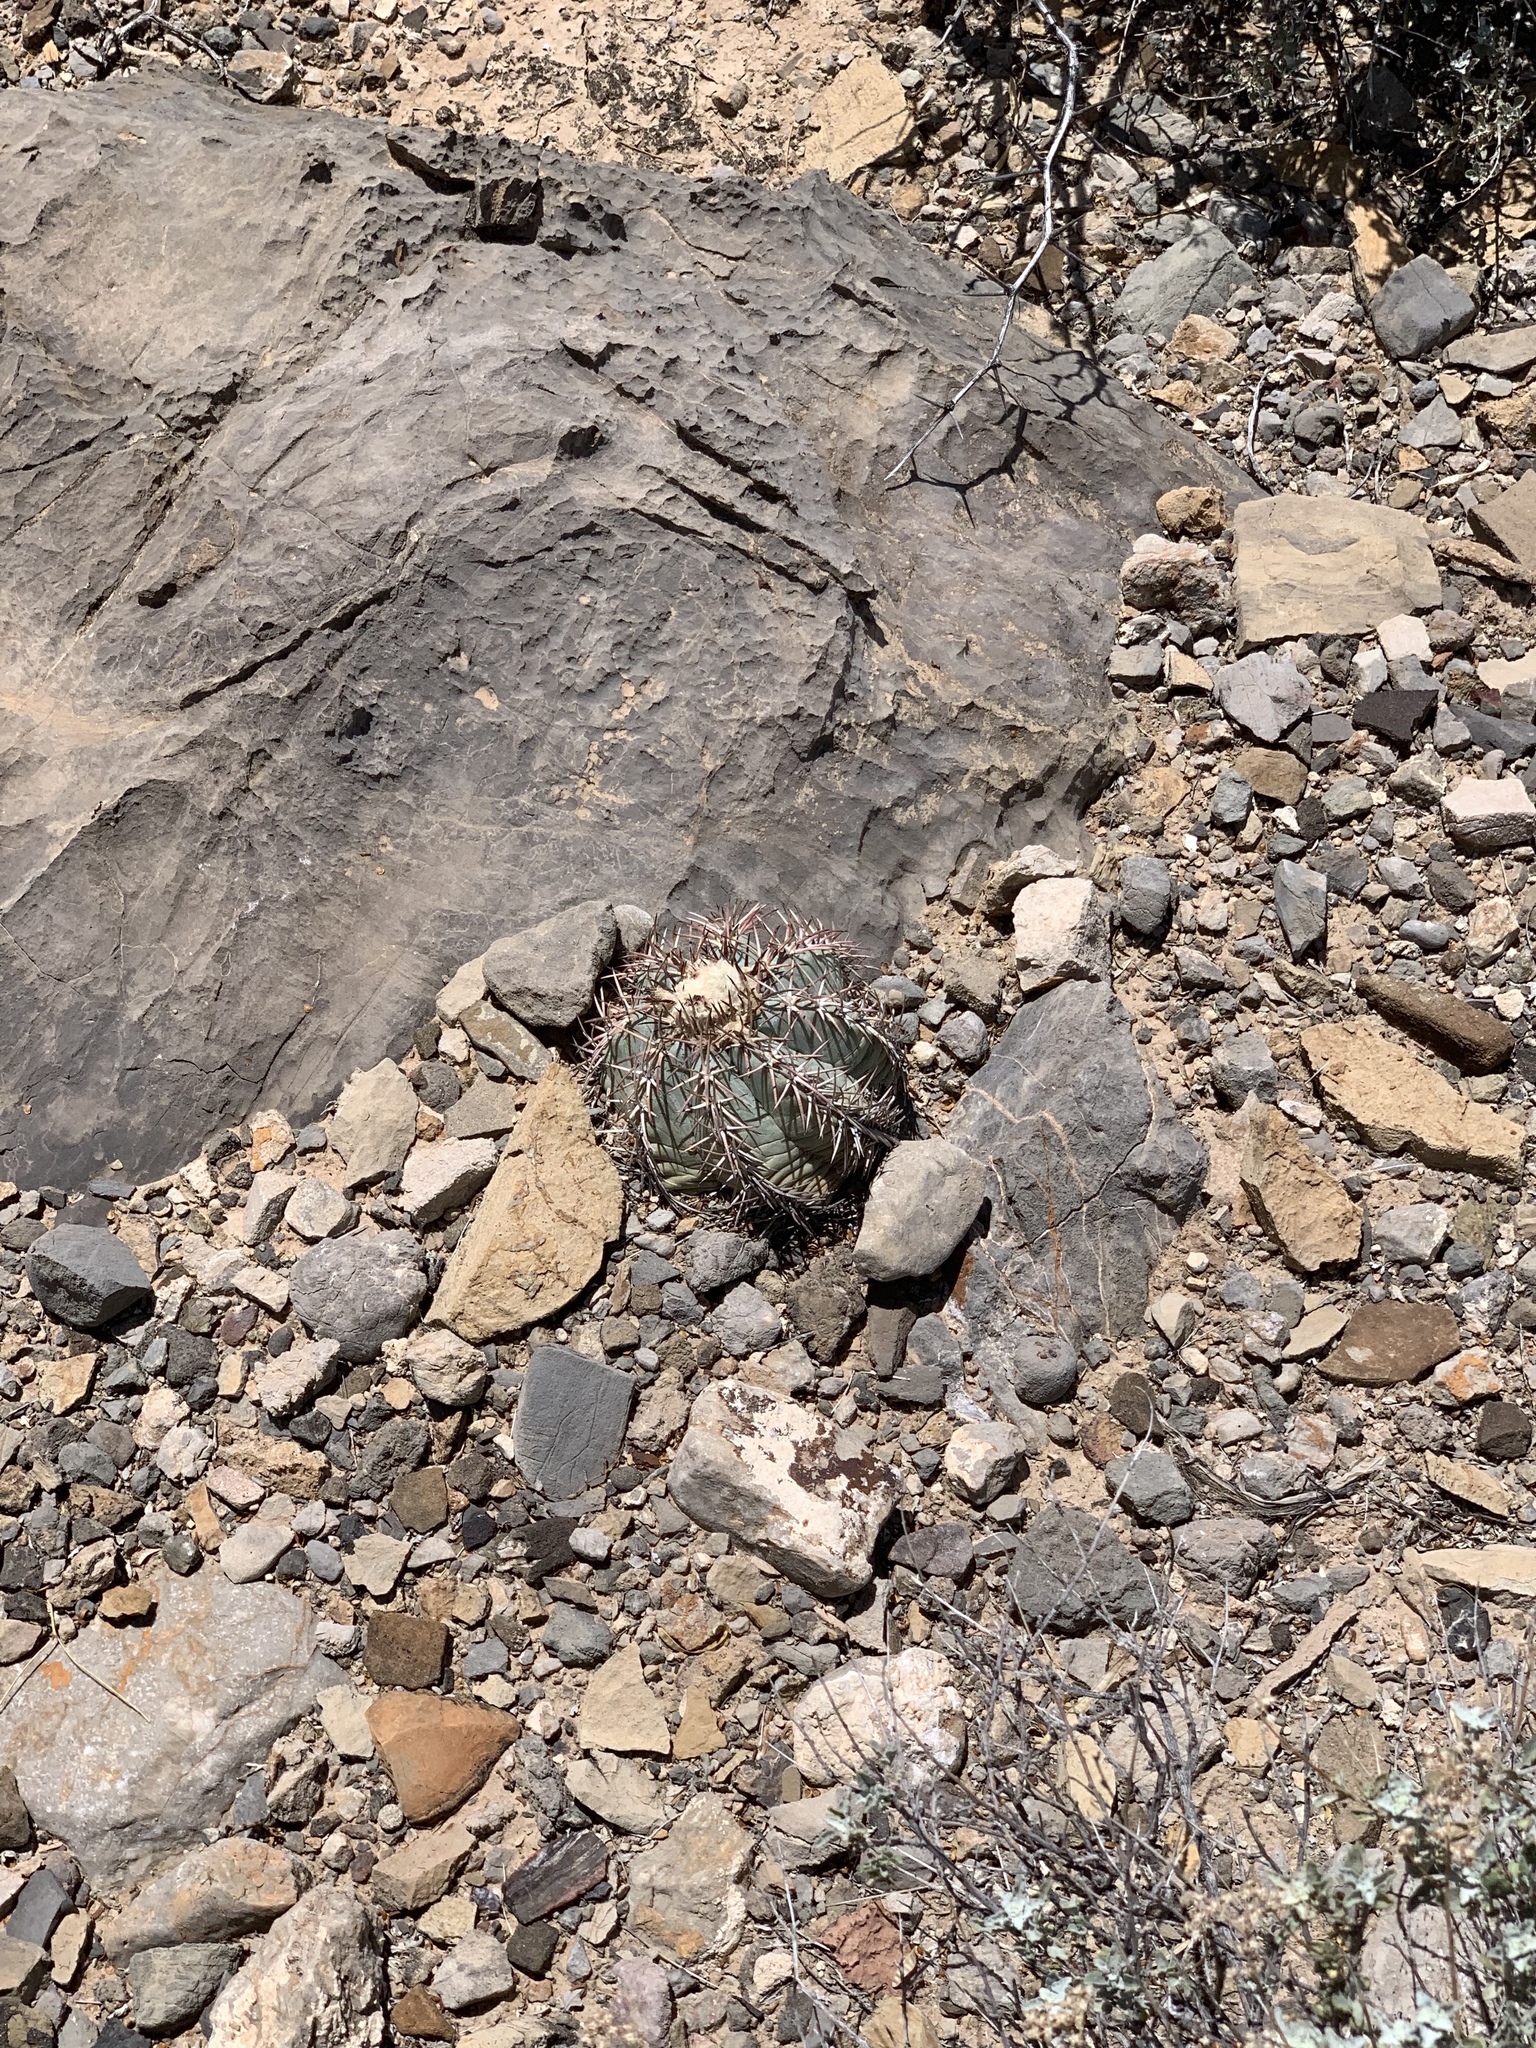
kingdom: Plantae
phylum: Tracheophyta
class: Magnoliopsida
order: Caryophyllales
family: Cactaceae
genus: Echinocactus
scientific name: Echinocactus horizonthalonius
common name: Devilshead
